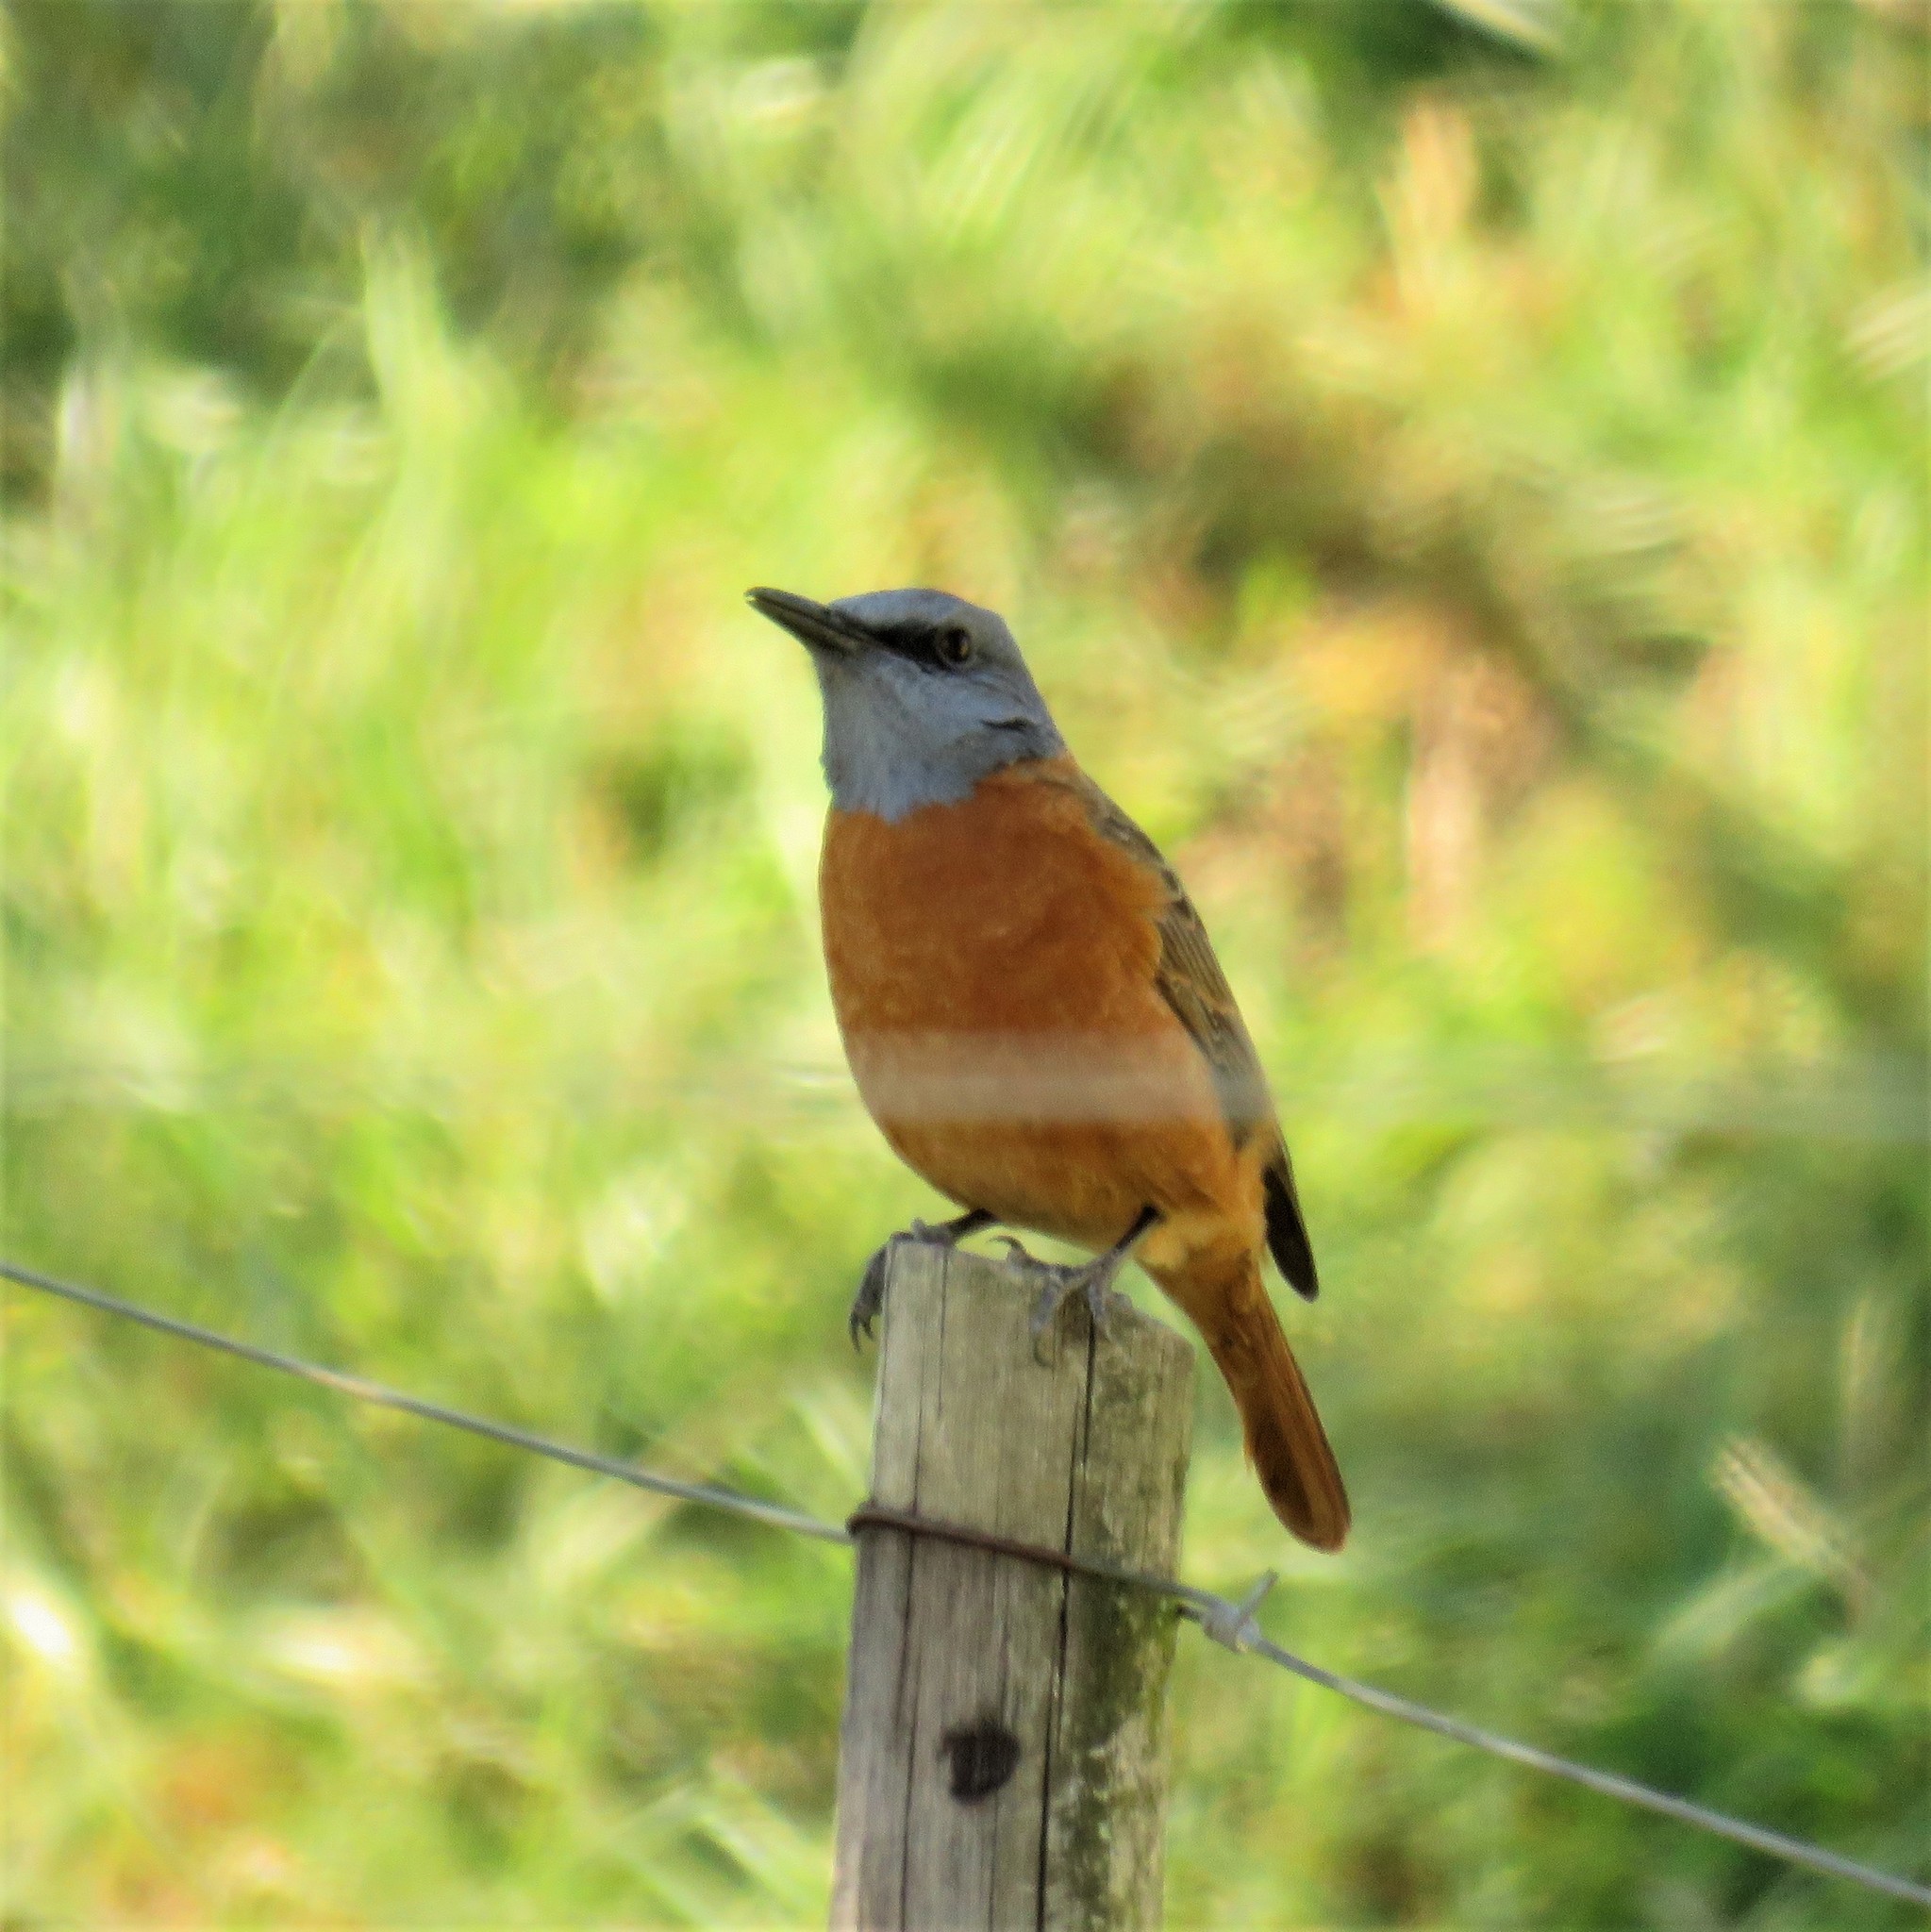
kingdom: Animalia
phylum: Chordata
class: Aves
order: Passeriformes
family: Muscicapidae
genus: Monticola
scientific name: Monticola rupestris
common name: Cape rock thrush
